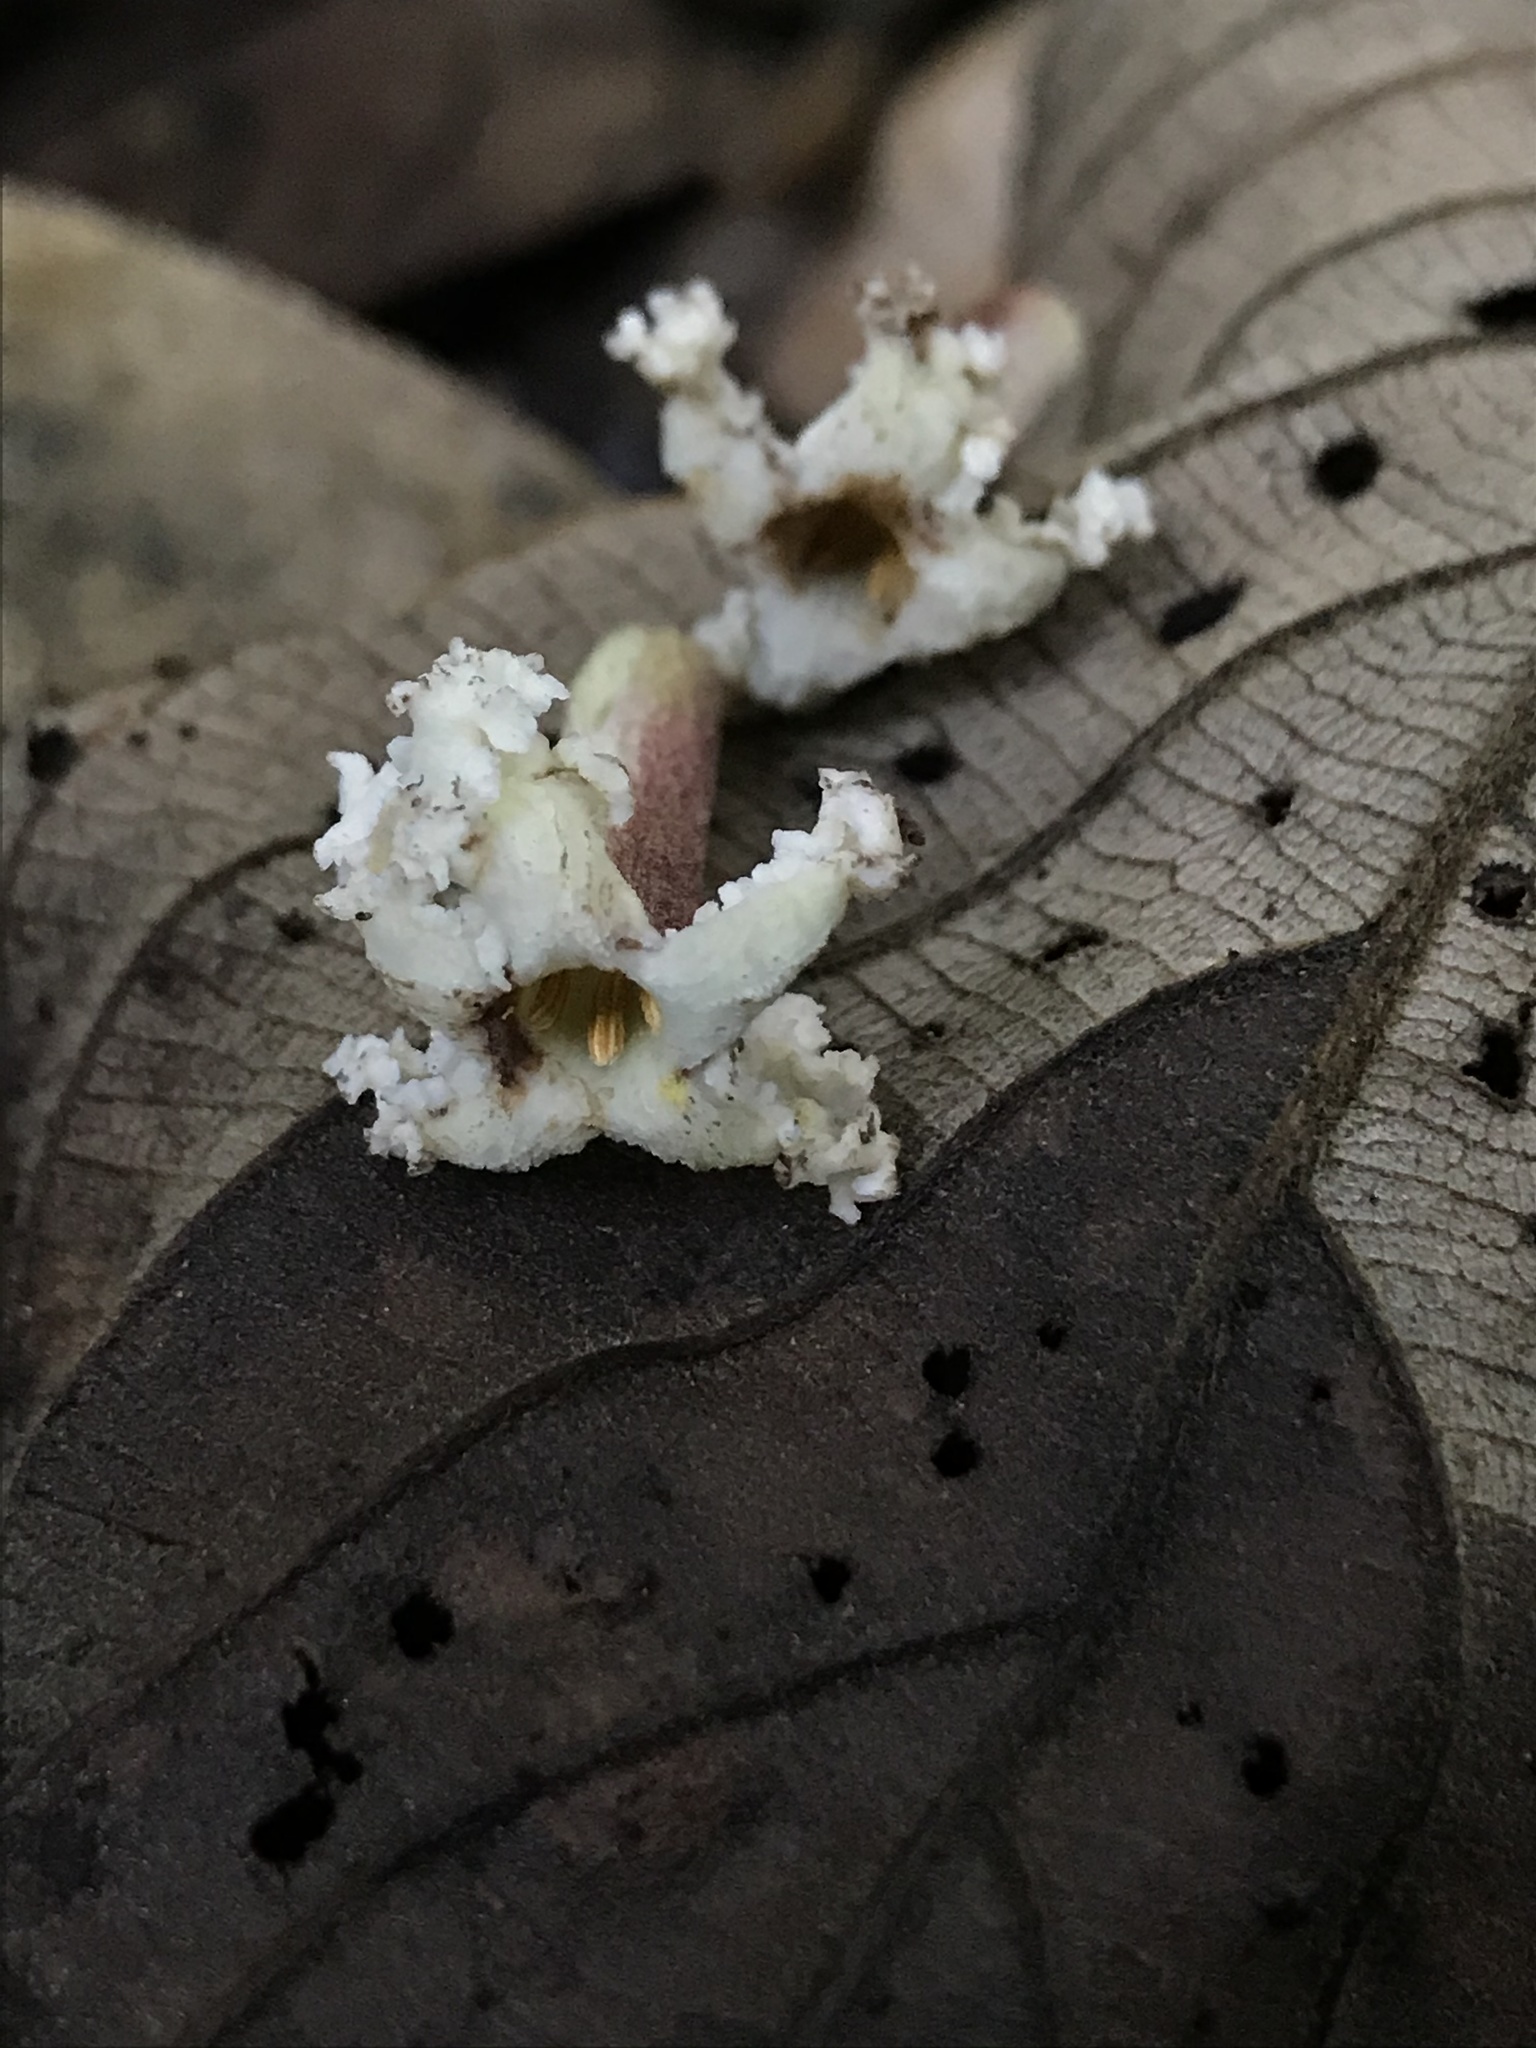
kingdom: Plantae
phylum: Tracheophyta
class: Magnoliopsida
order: Gentianales
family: Rubiaceae
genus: Guettarda
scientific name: Guettarda dependens
